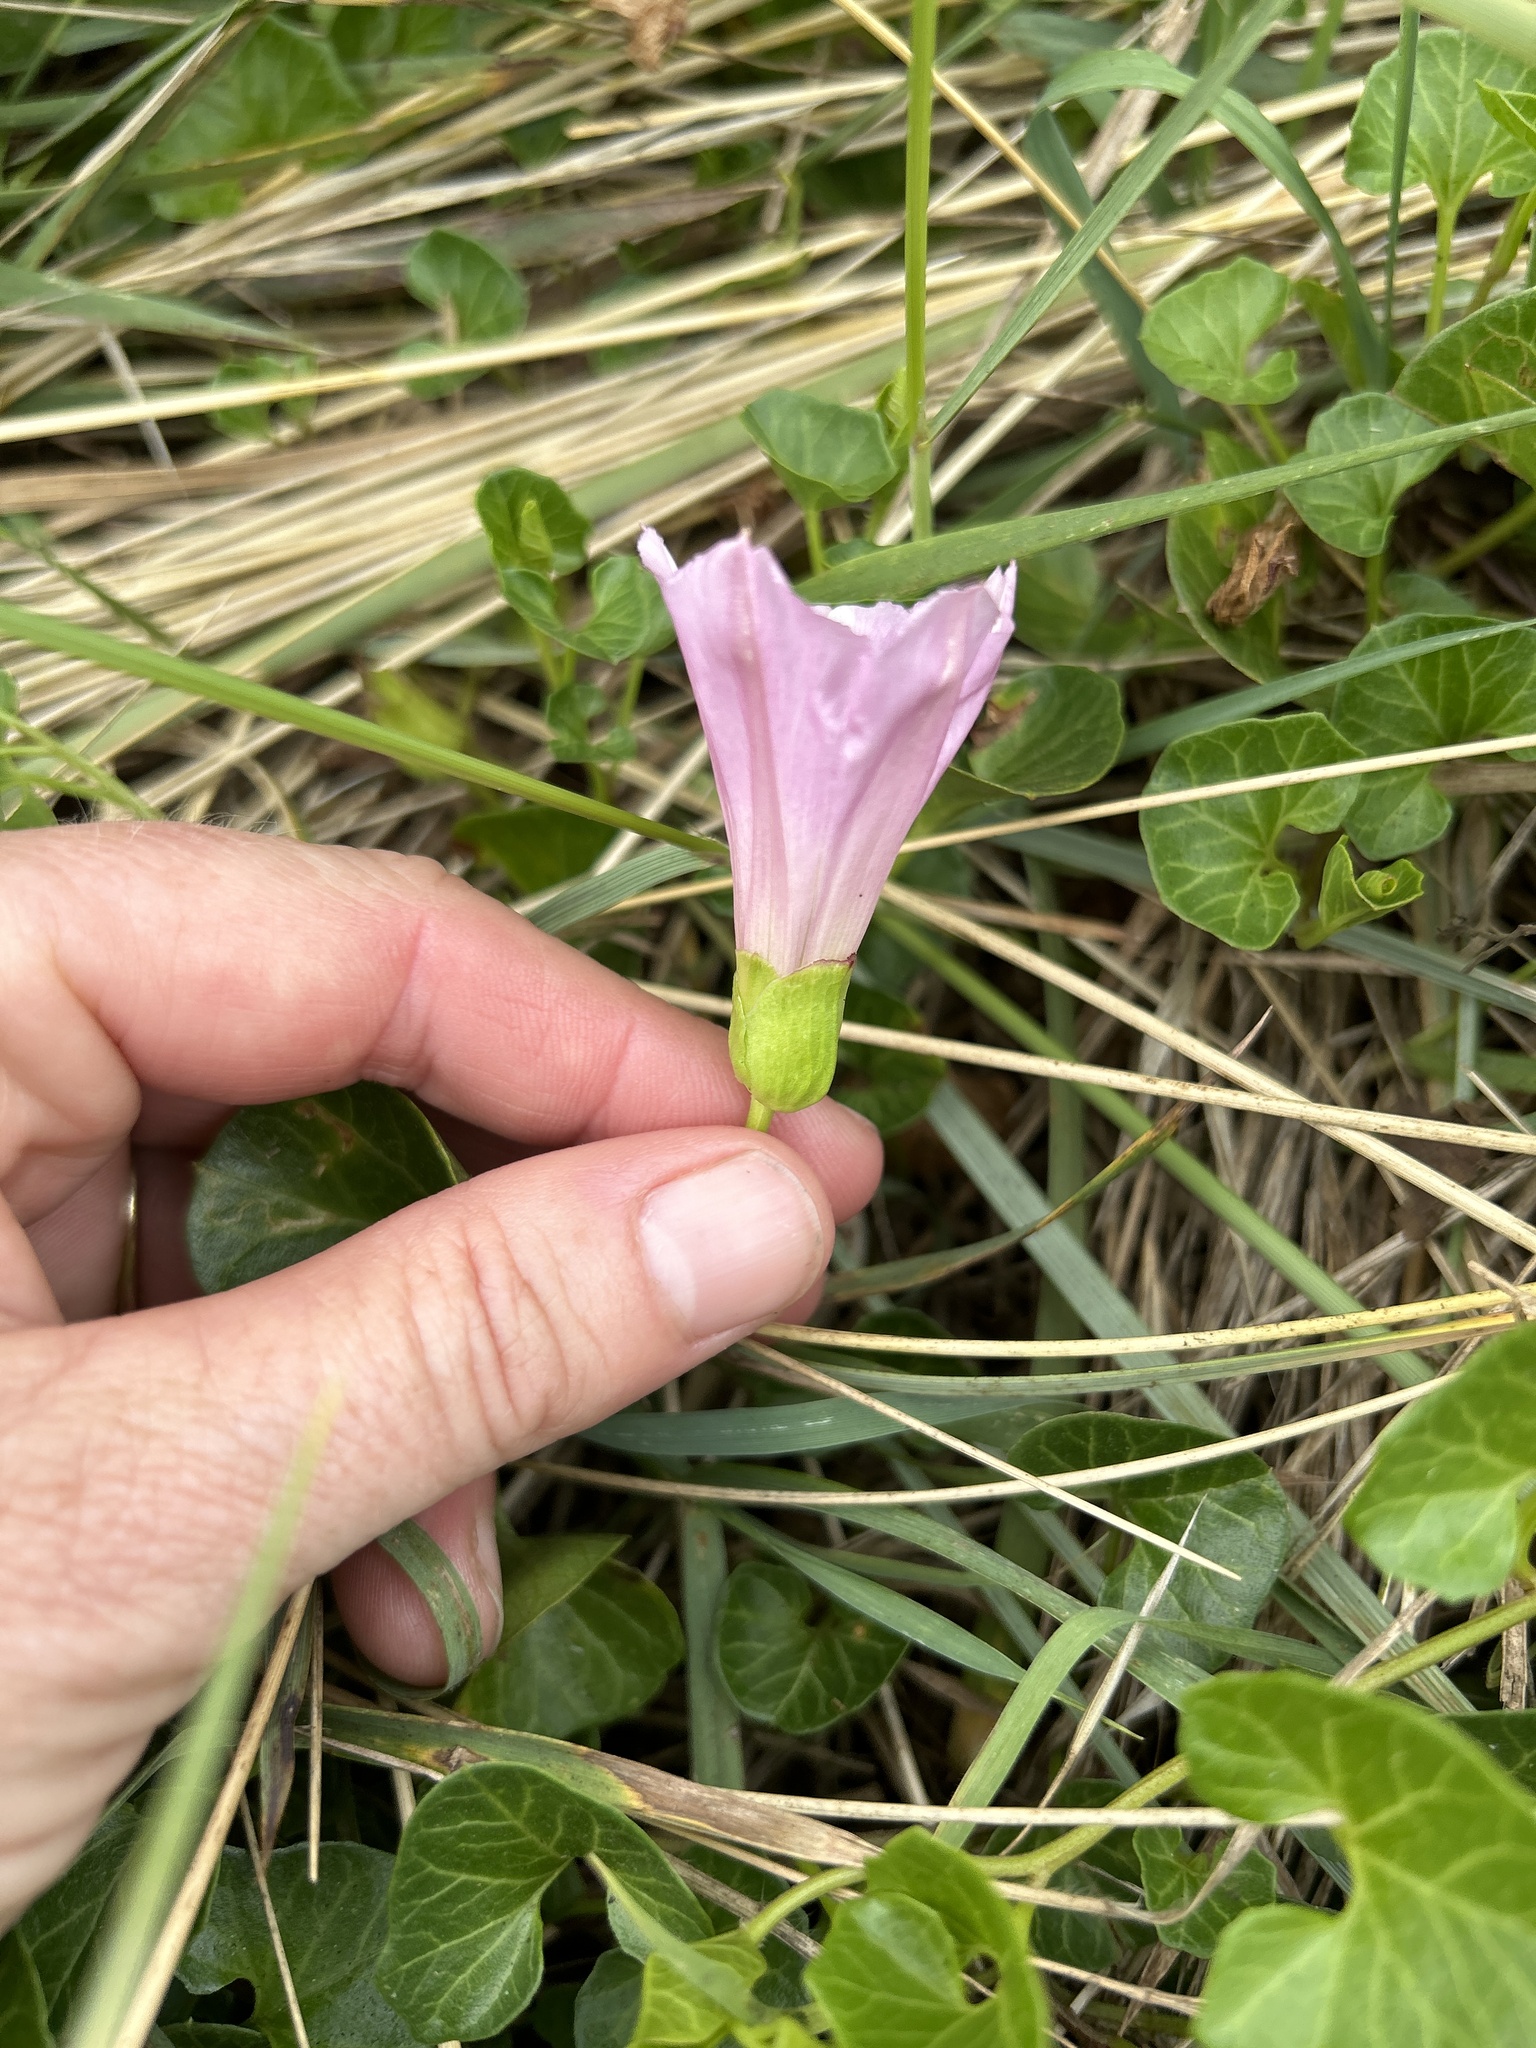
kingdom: Plantae
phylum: Tracheophyta
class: Magnoliopsida
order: Solanales
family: Convolvulaceae
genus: Calystegia
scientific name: Calystegia soldanella
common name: Sea bindweed
